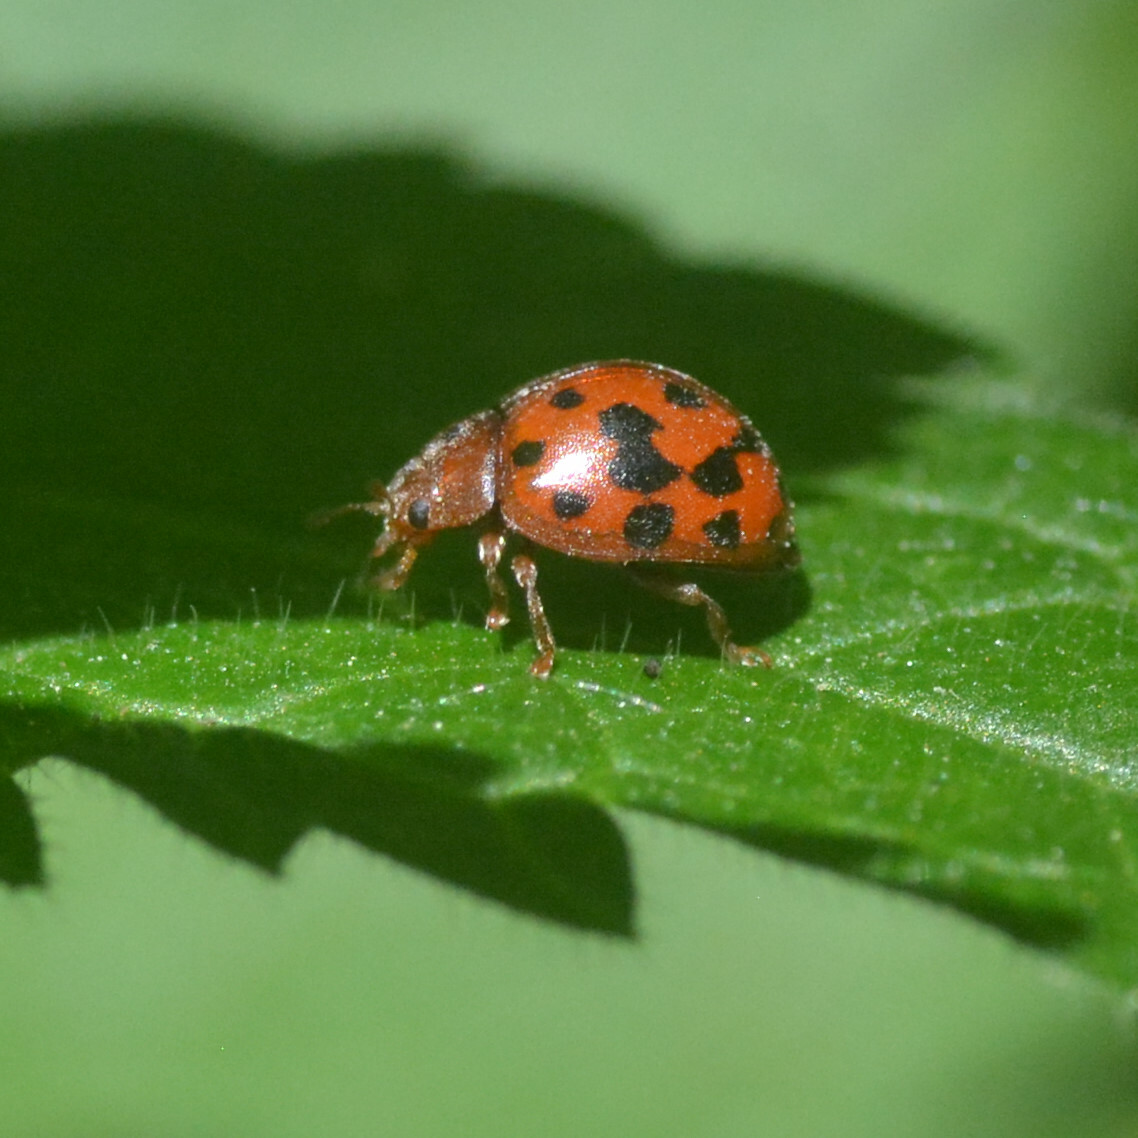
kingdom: Animalia
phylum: Arthropoda
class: Insecta
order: Coleoptera
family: Coccinellidae
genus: Subcoccinella
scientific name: Subcoccinella vigintiquatuorpunctata
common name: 24-spot ladybird
